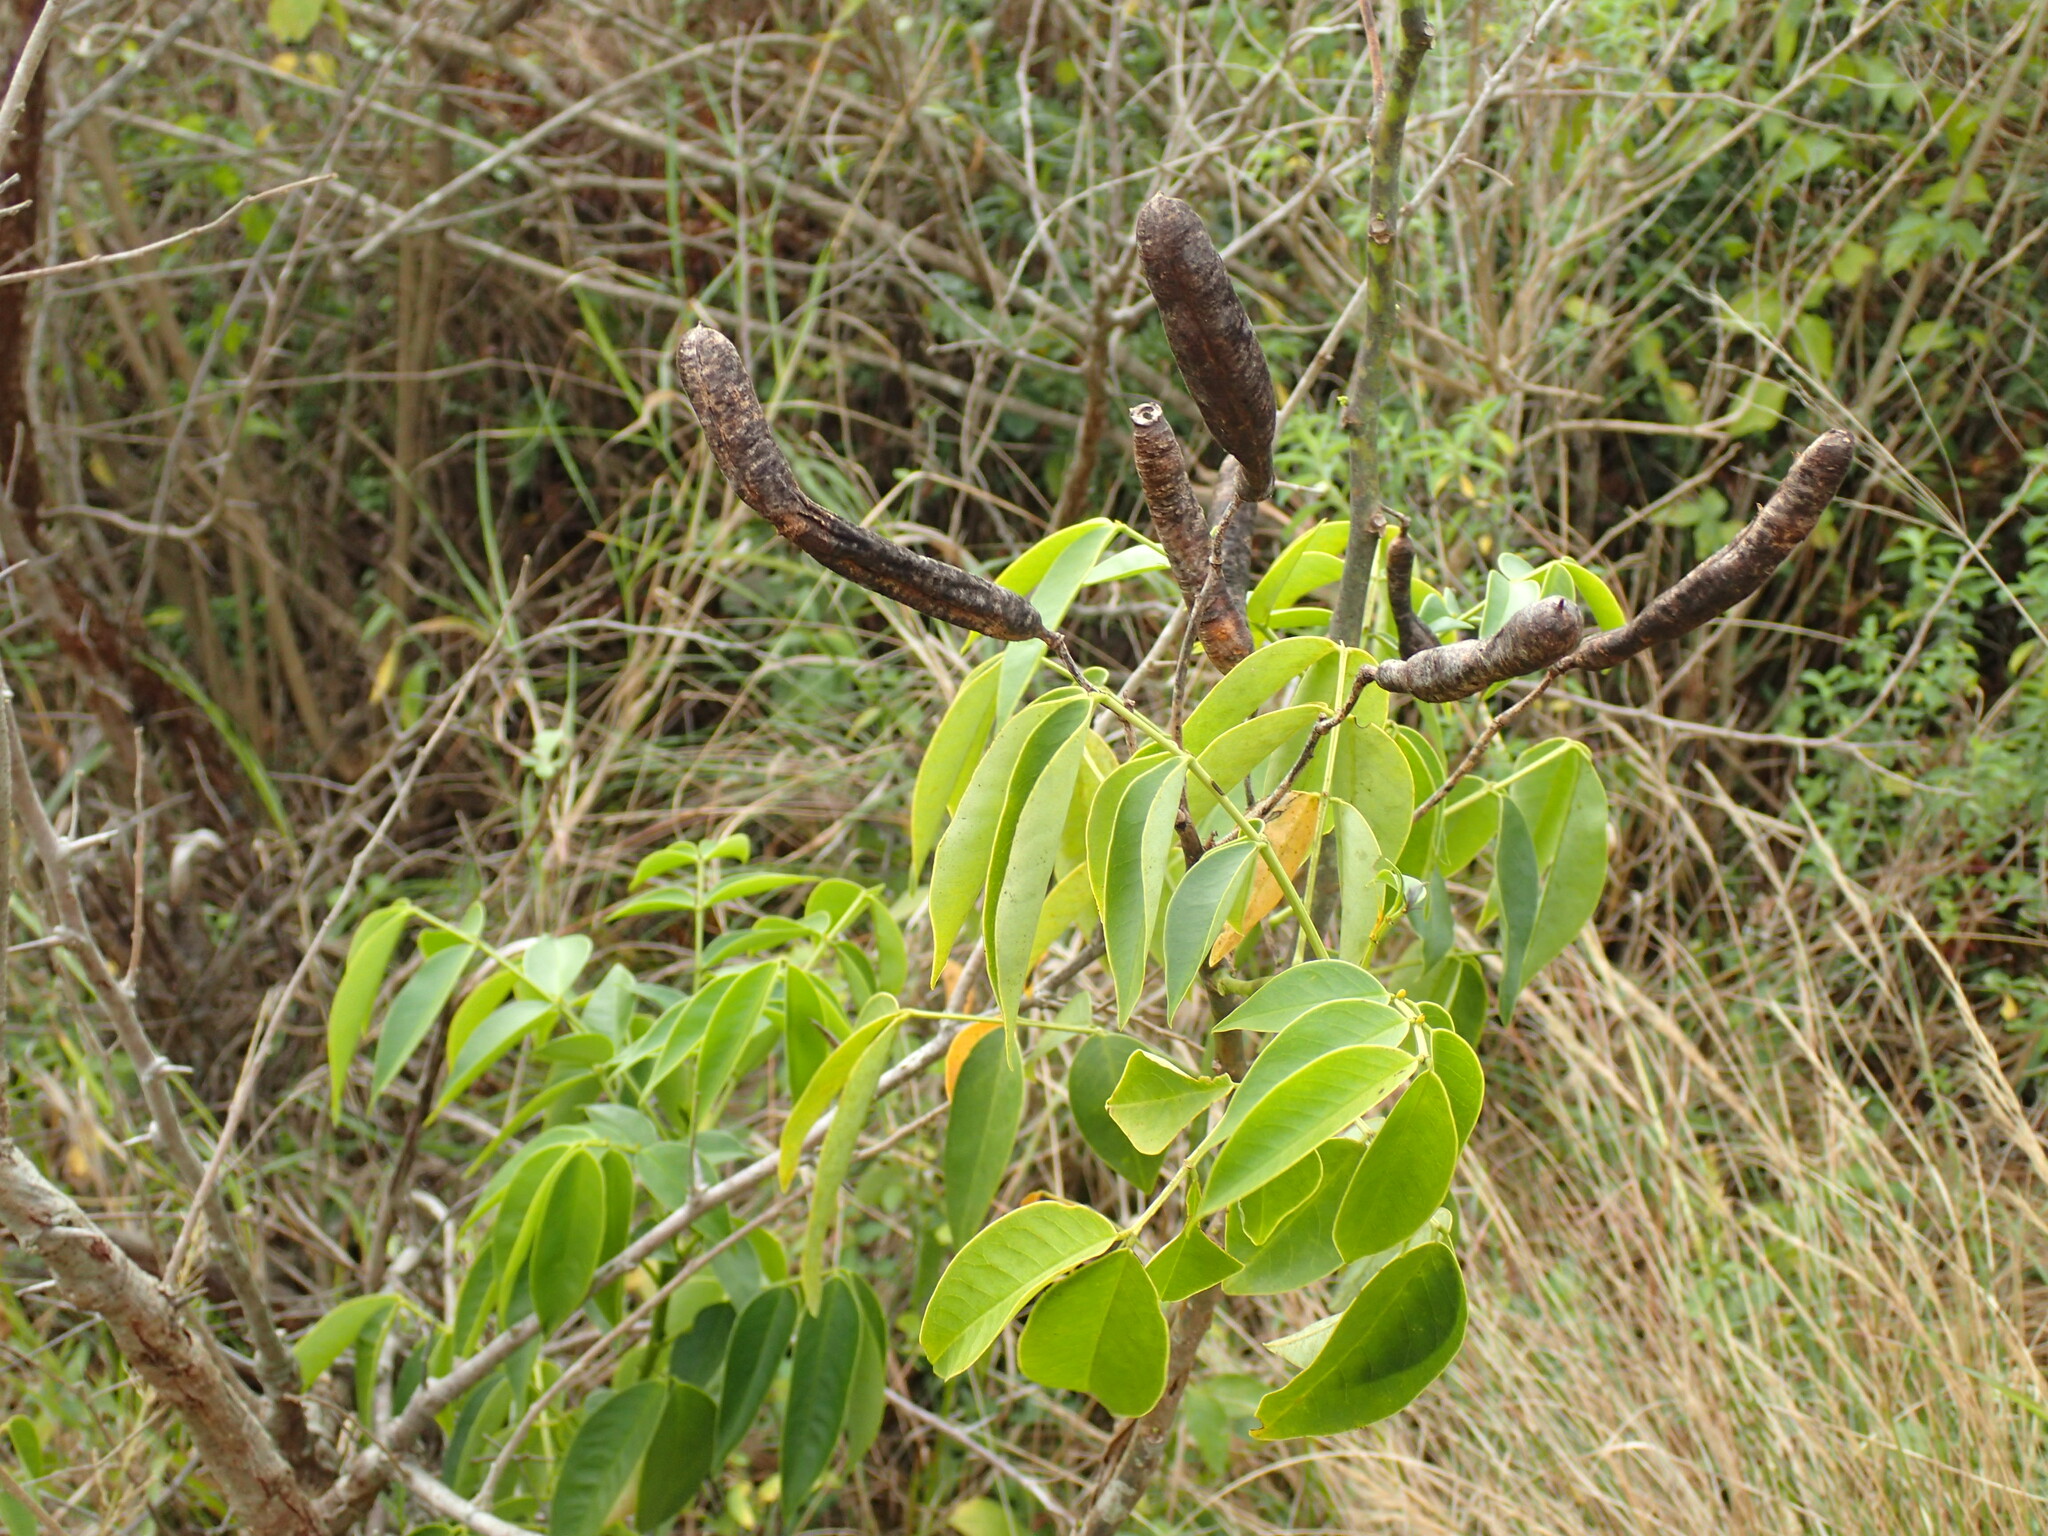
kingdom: Plantae
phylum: Tracheophyta
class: Magnoliopsida
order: Fabales
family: Fabaceae
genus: Senna
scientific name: Senna septemtrionalis
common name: Arsenic bush
